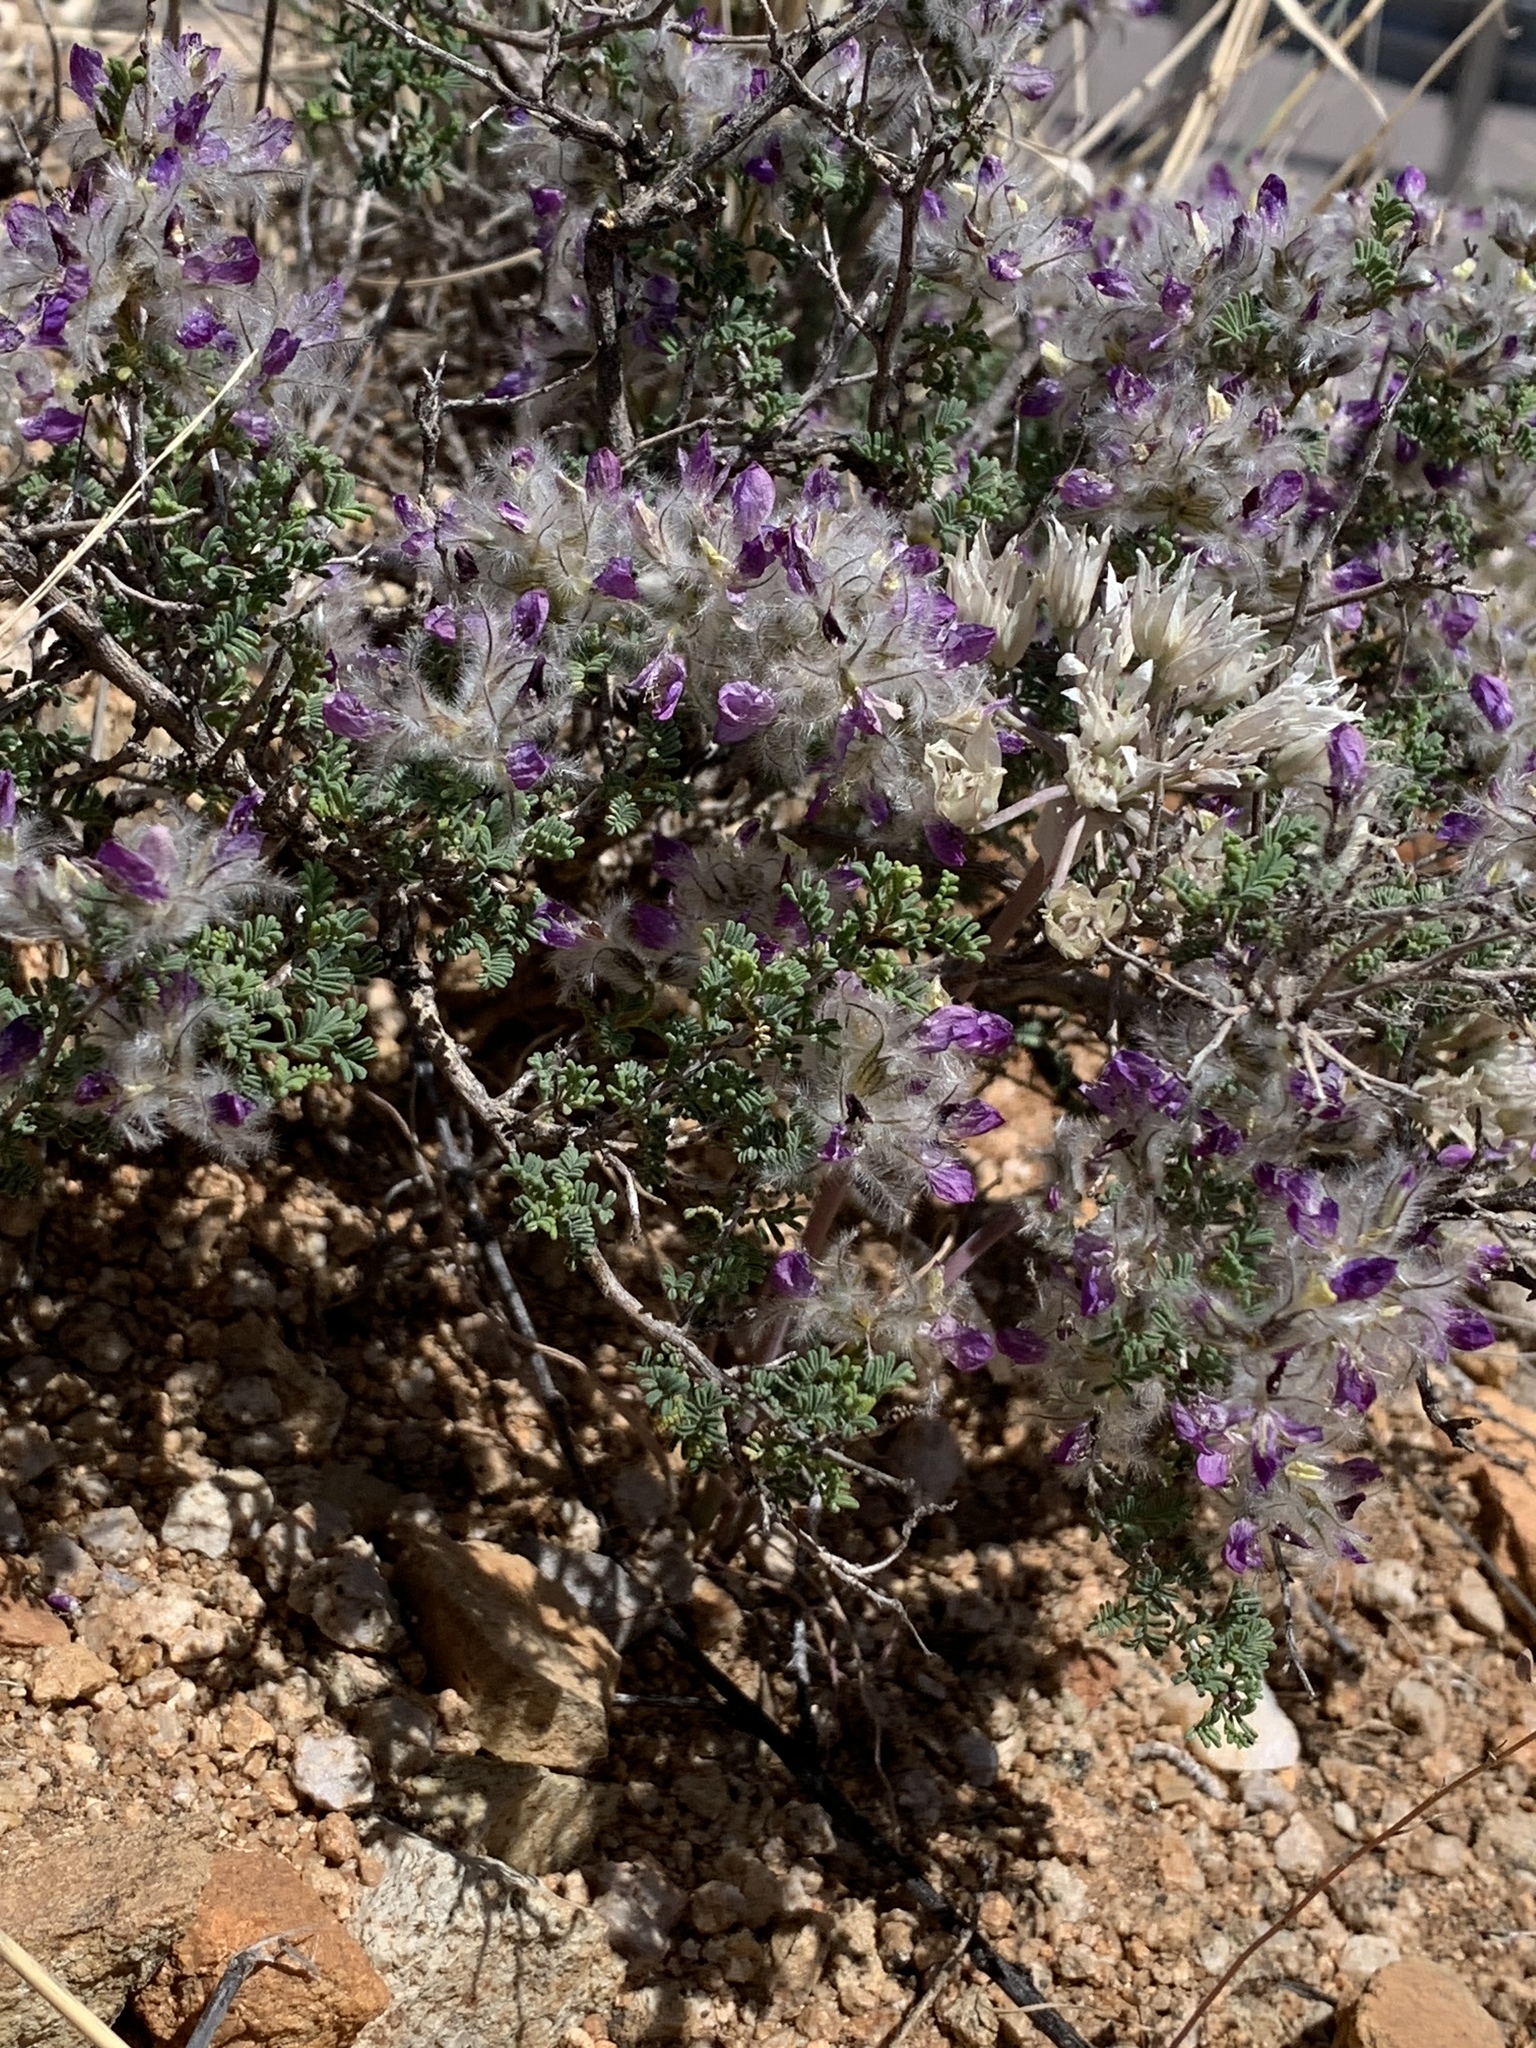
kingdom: Plantae
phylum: Tracheophyta
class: Magnoliopsida
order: Fabales
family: Fabaceae
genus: Dalea
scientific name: Dalea formosa
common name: Feather-plume dalea
